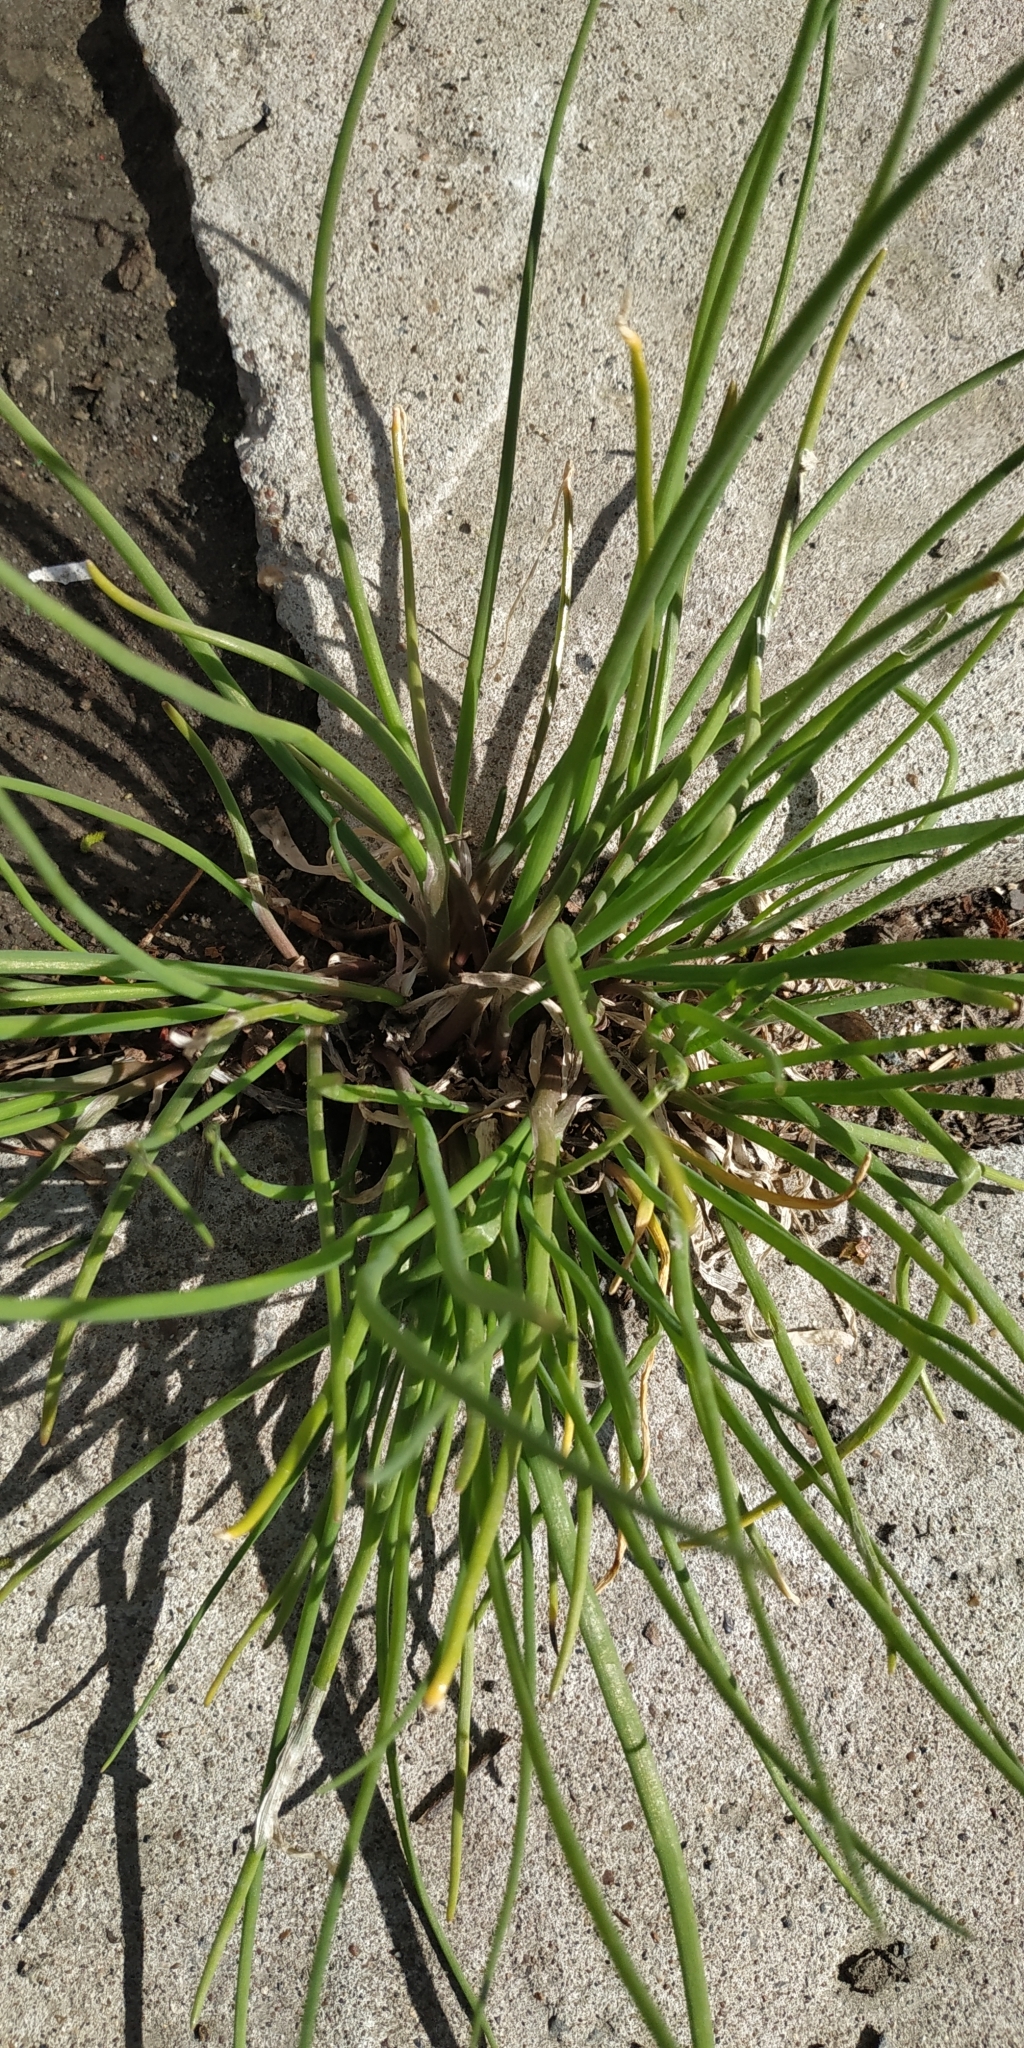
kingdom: Plantae
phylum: Tracheophyta
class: Liliopsida
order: Asparagales
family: Amaryllidaceae
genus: Allium
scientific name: Allium schoenoprasum
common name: Chives
